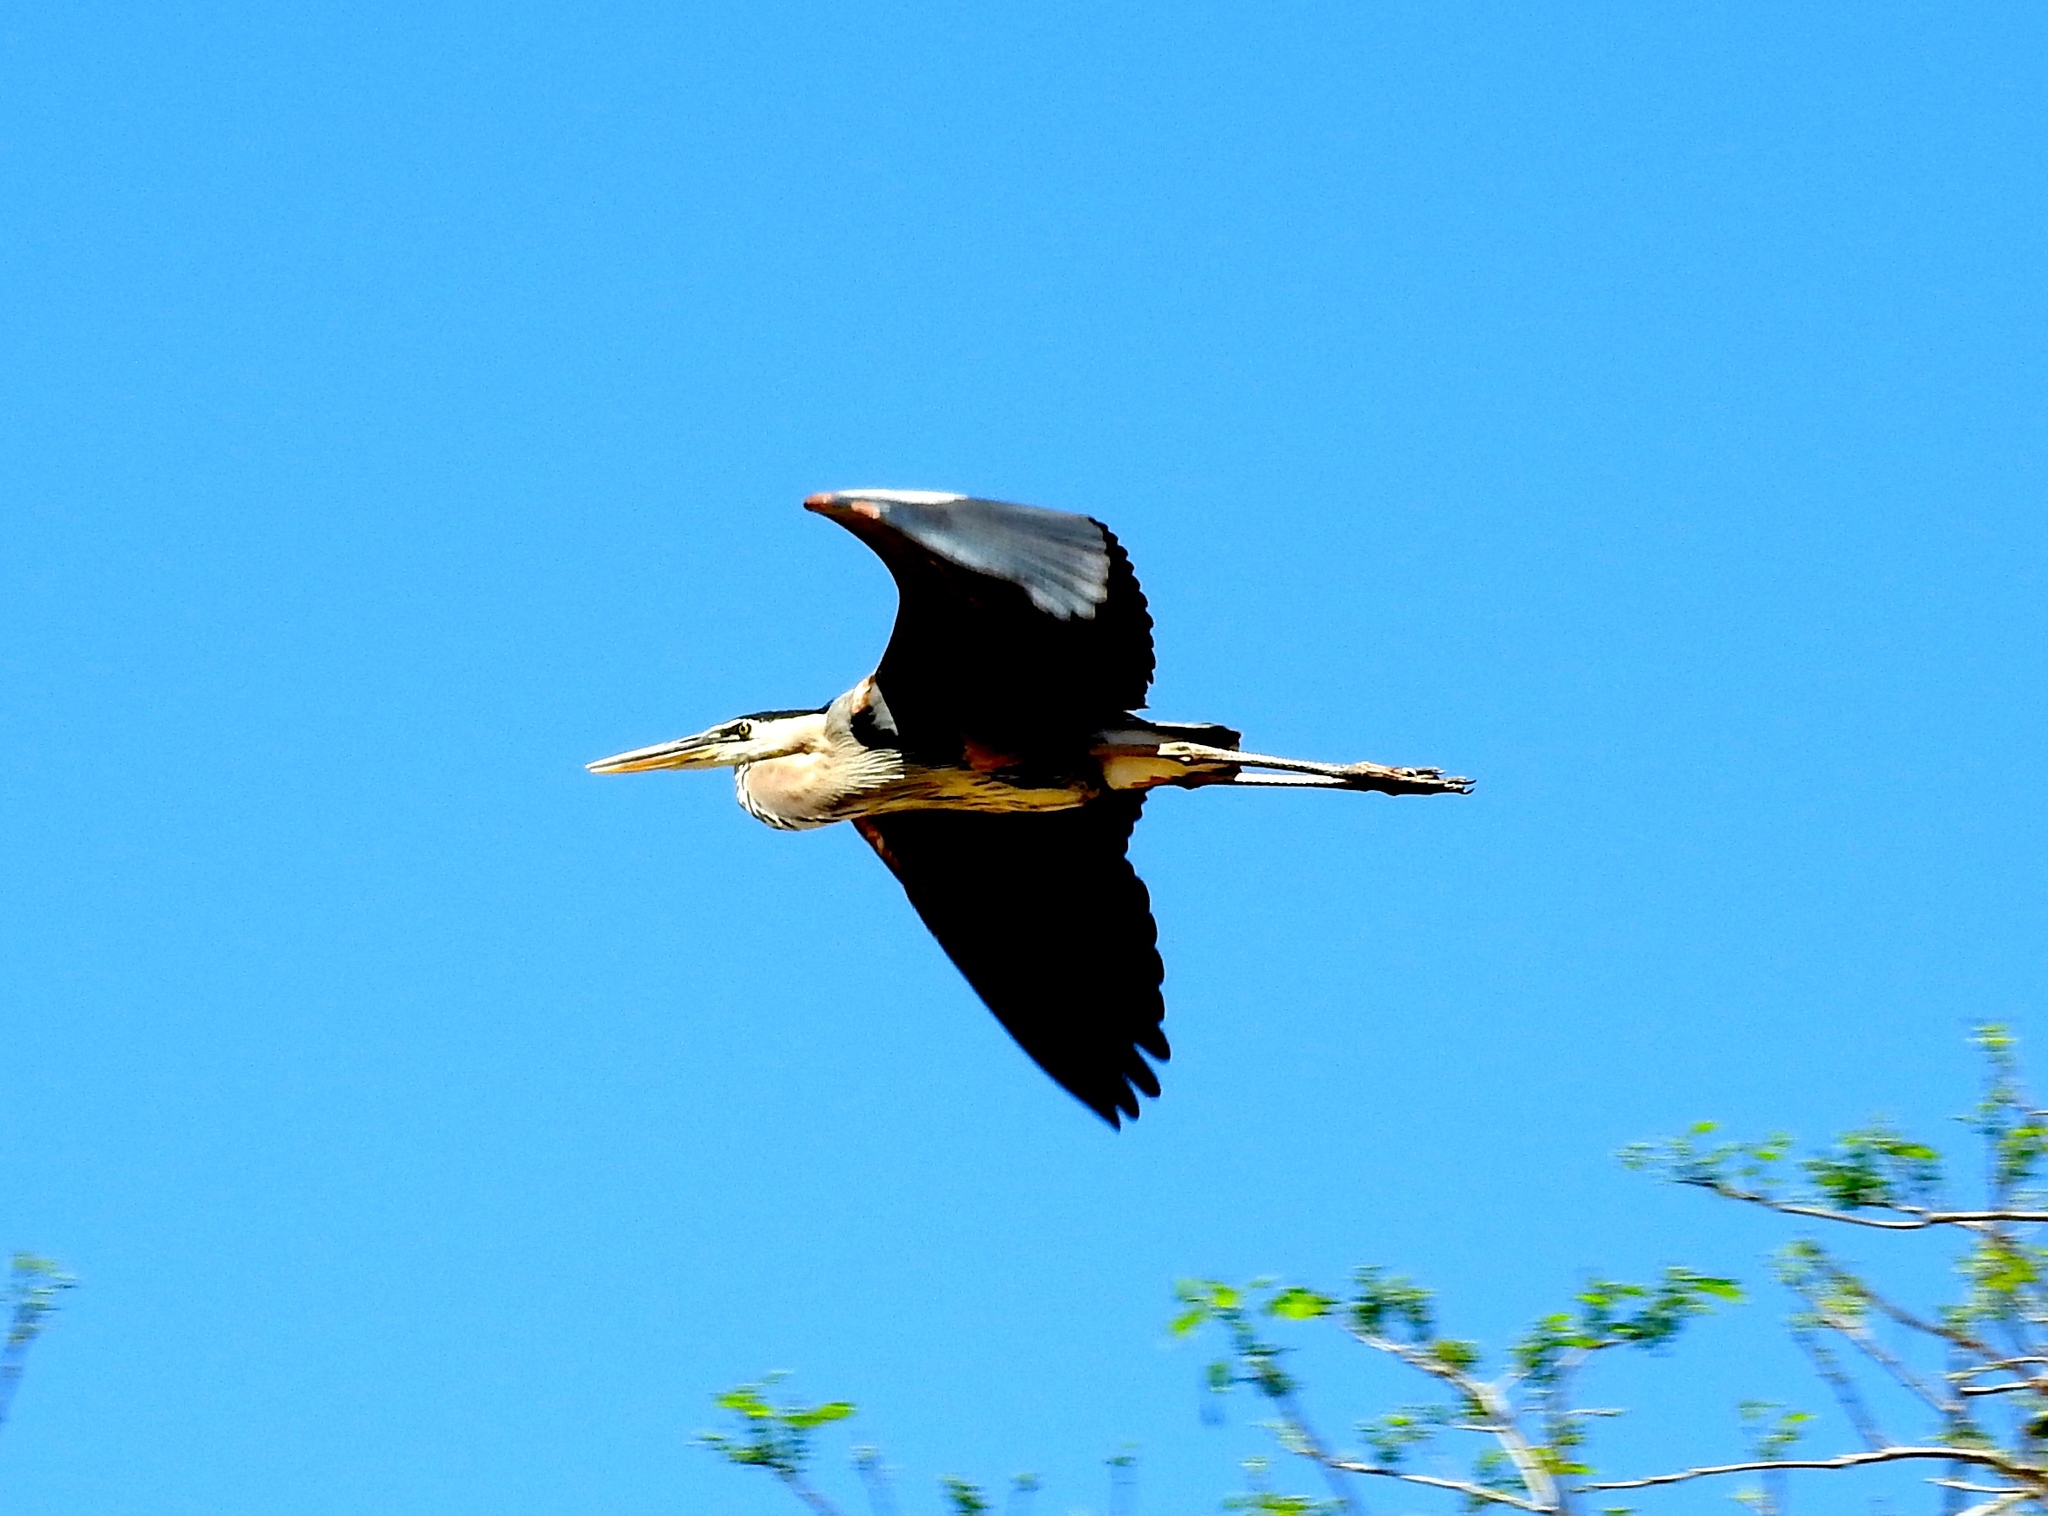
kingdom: Animalia
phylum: Chordata
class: Aves
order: Pelecaniformes
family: Ardeidae
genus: Ardea
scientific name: Ardea herodias
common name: Great blue heron
